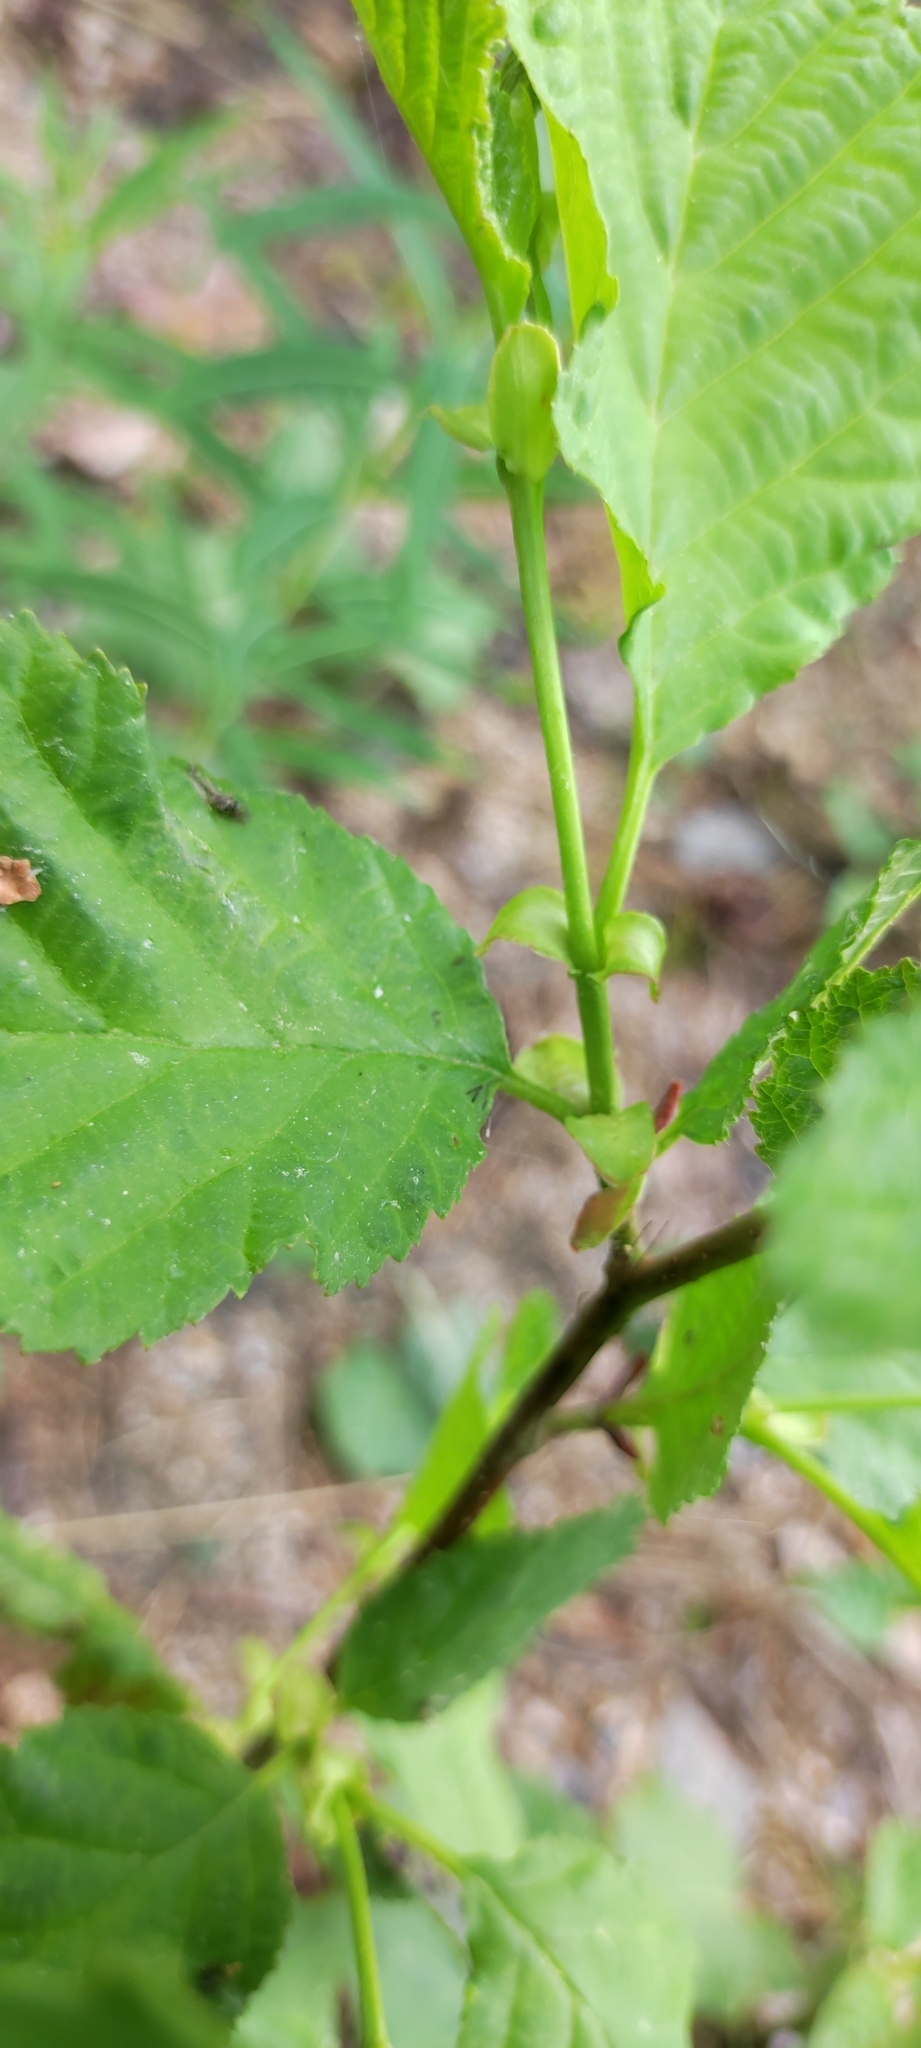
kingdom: Plantae
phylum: Tracheophyta
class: Magnoliopsida
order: Fagales
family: Betulaceae
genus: Alnus
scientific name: Alnus glutinosa
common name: Black alder
